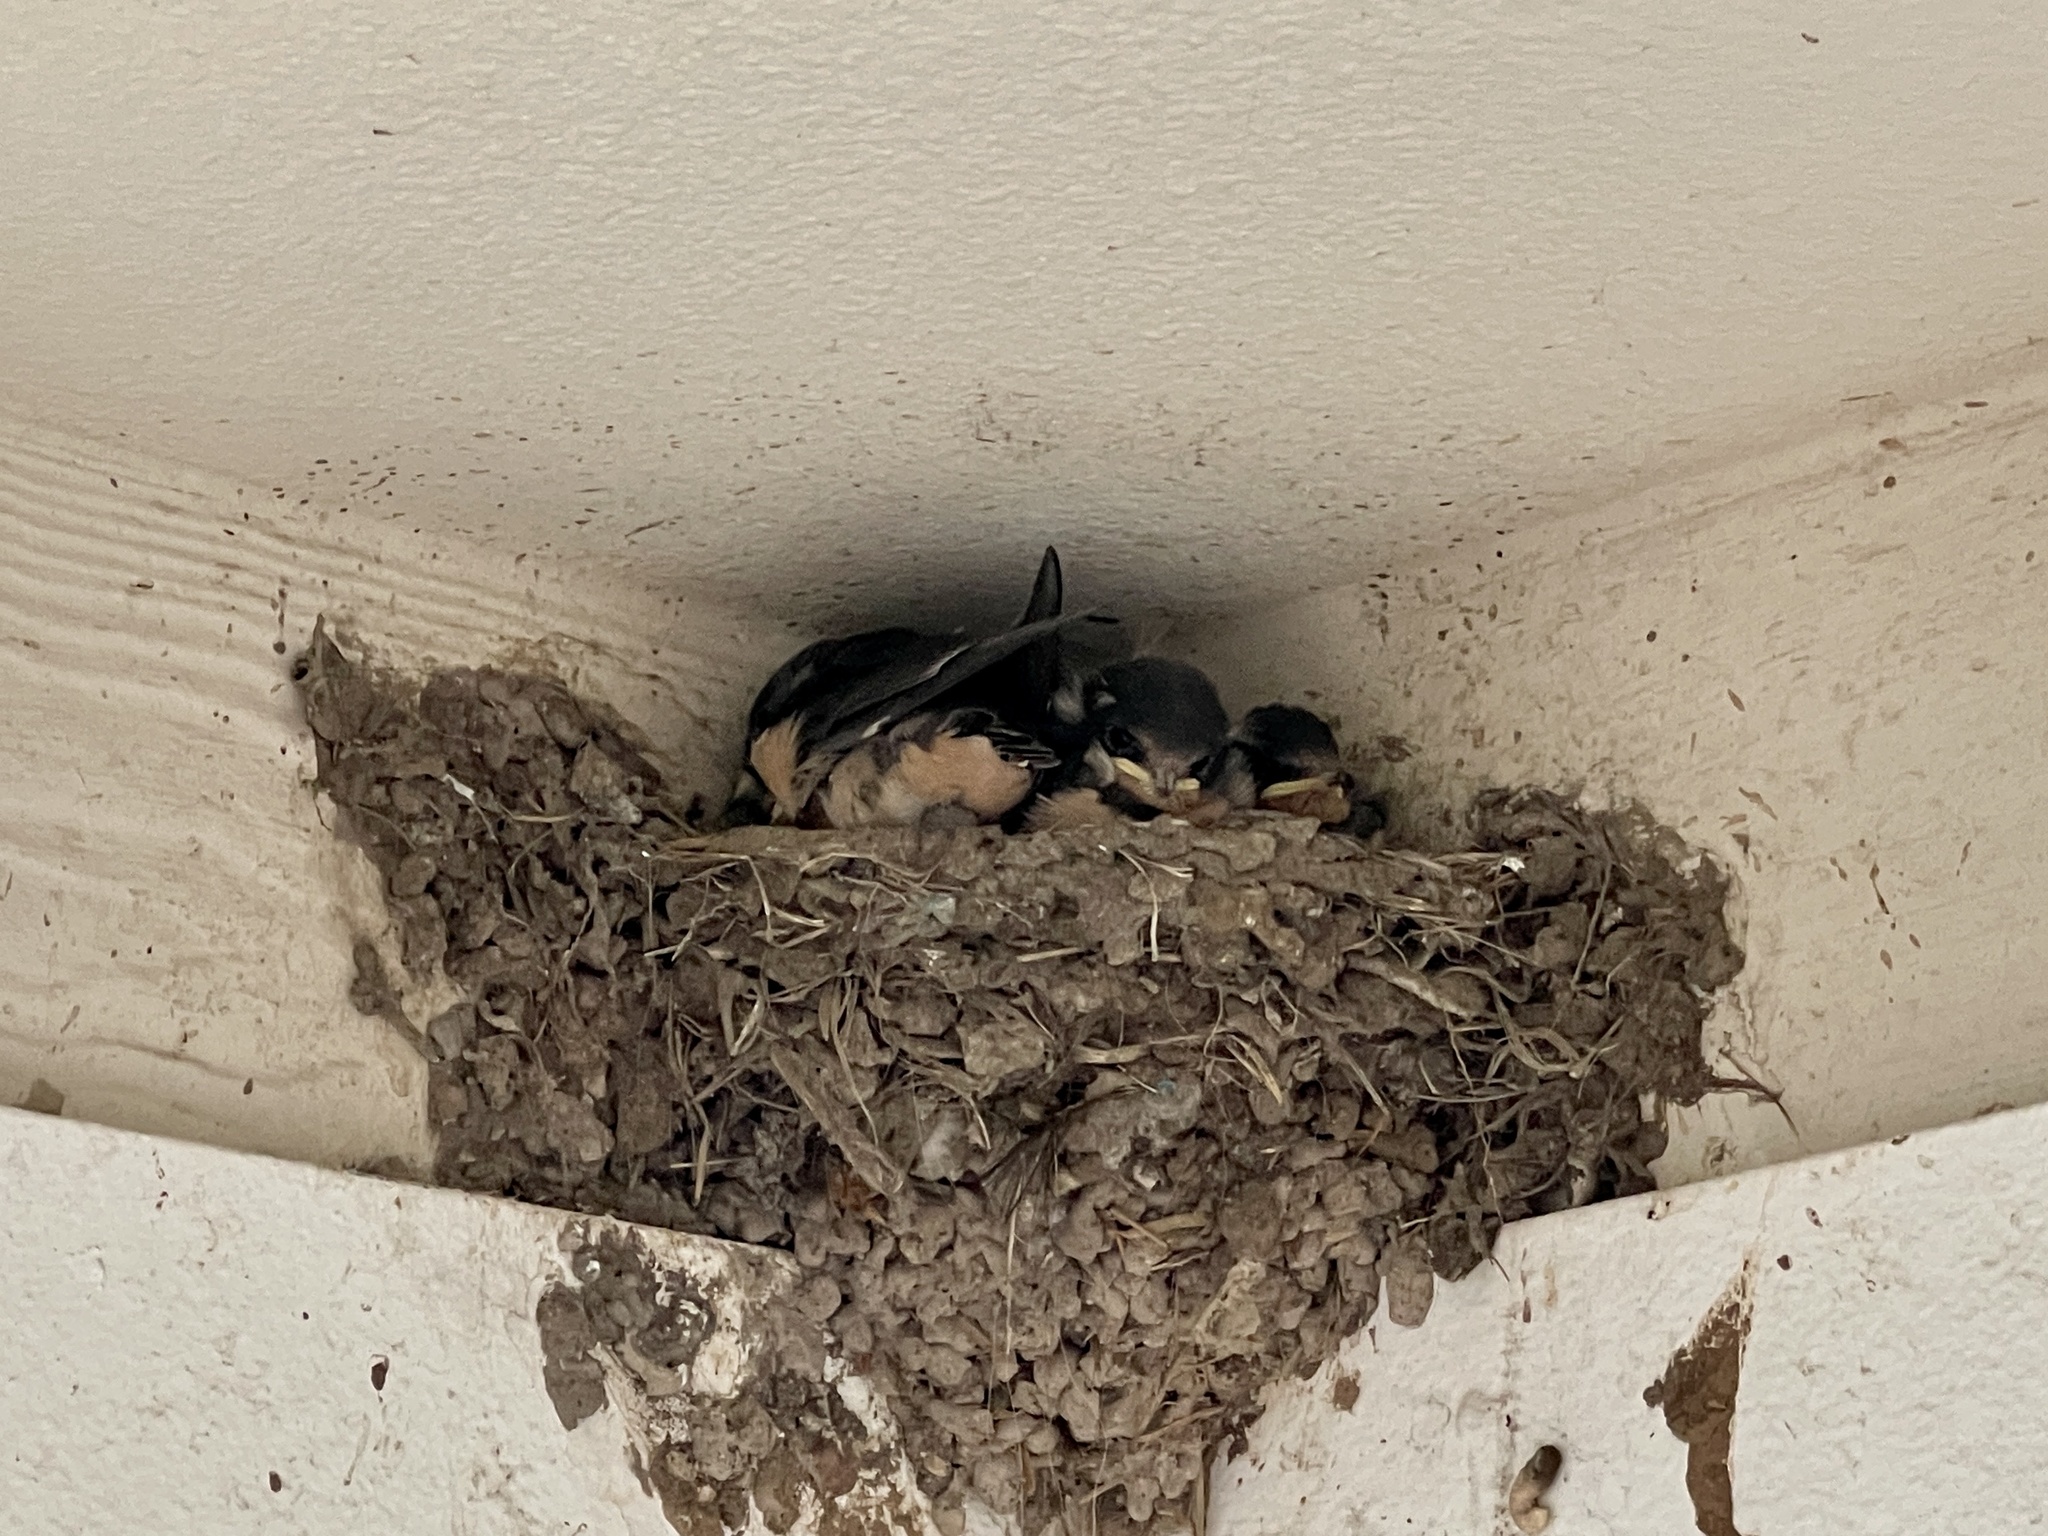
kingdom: Animalia
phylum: Chordata
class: Aves
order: Passeriformes
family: Hirundinidae
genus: Hirundo
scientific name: Hirundo rustica
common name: Barn swallow
